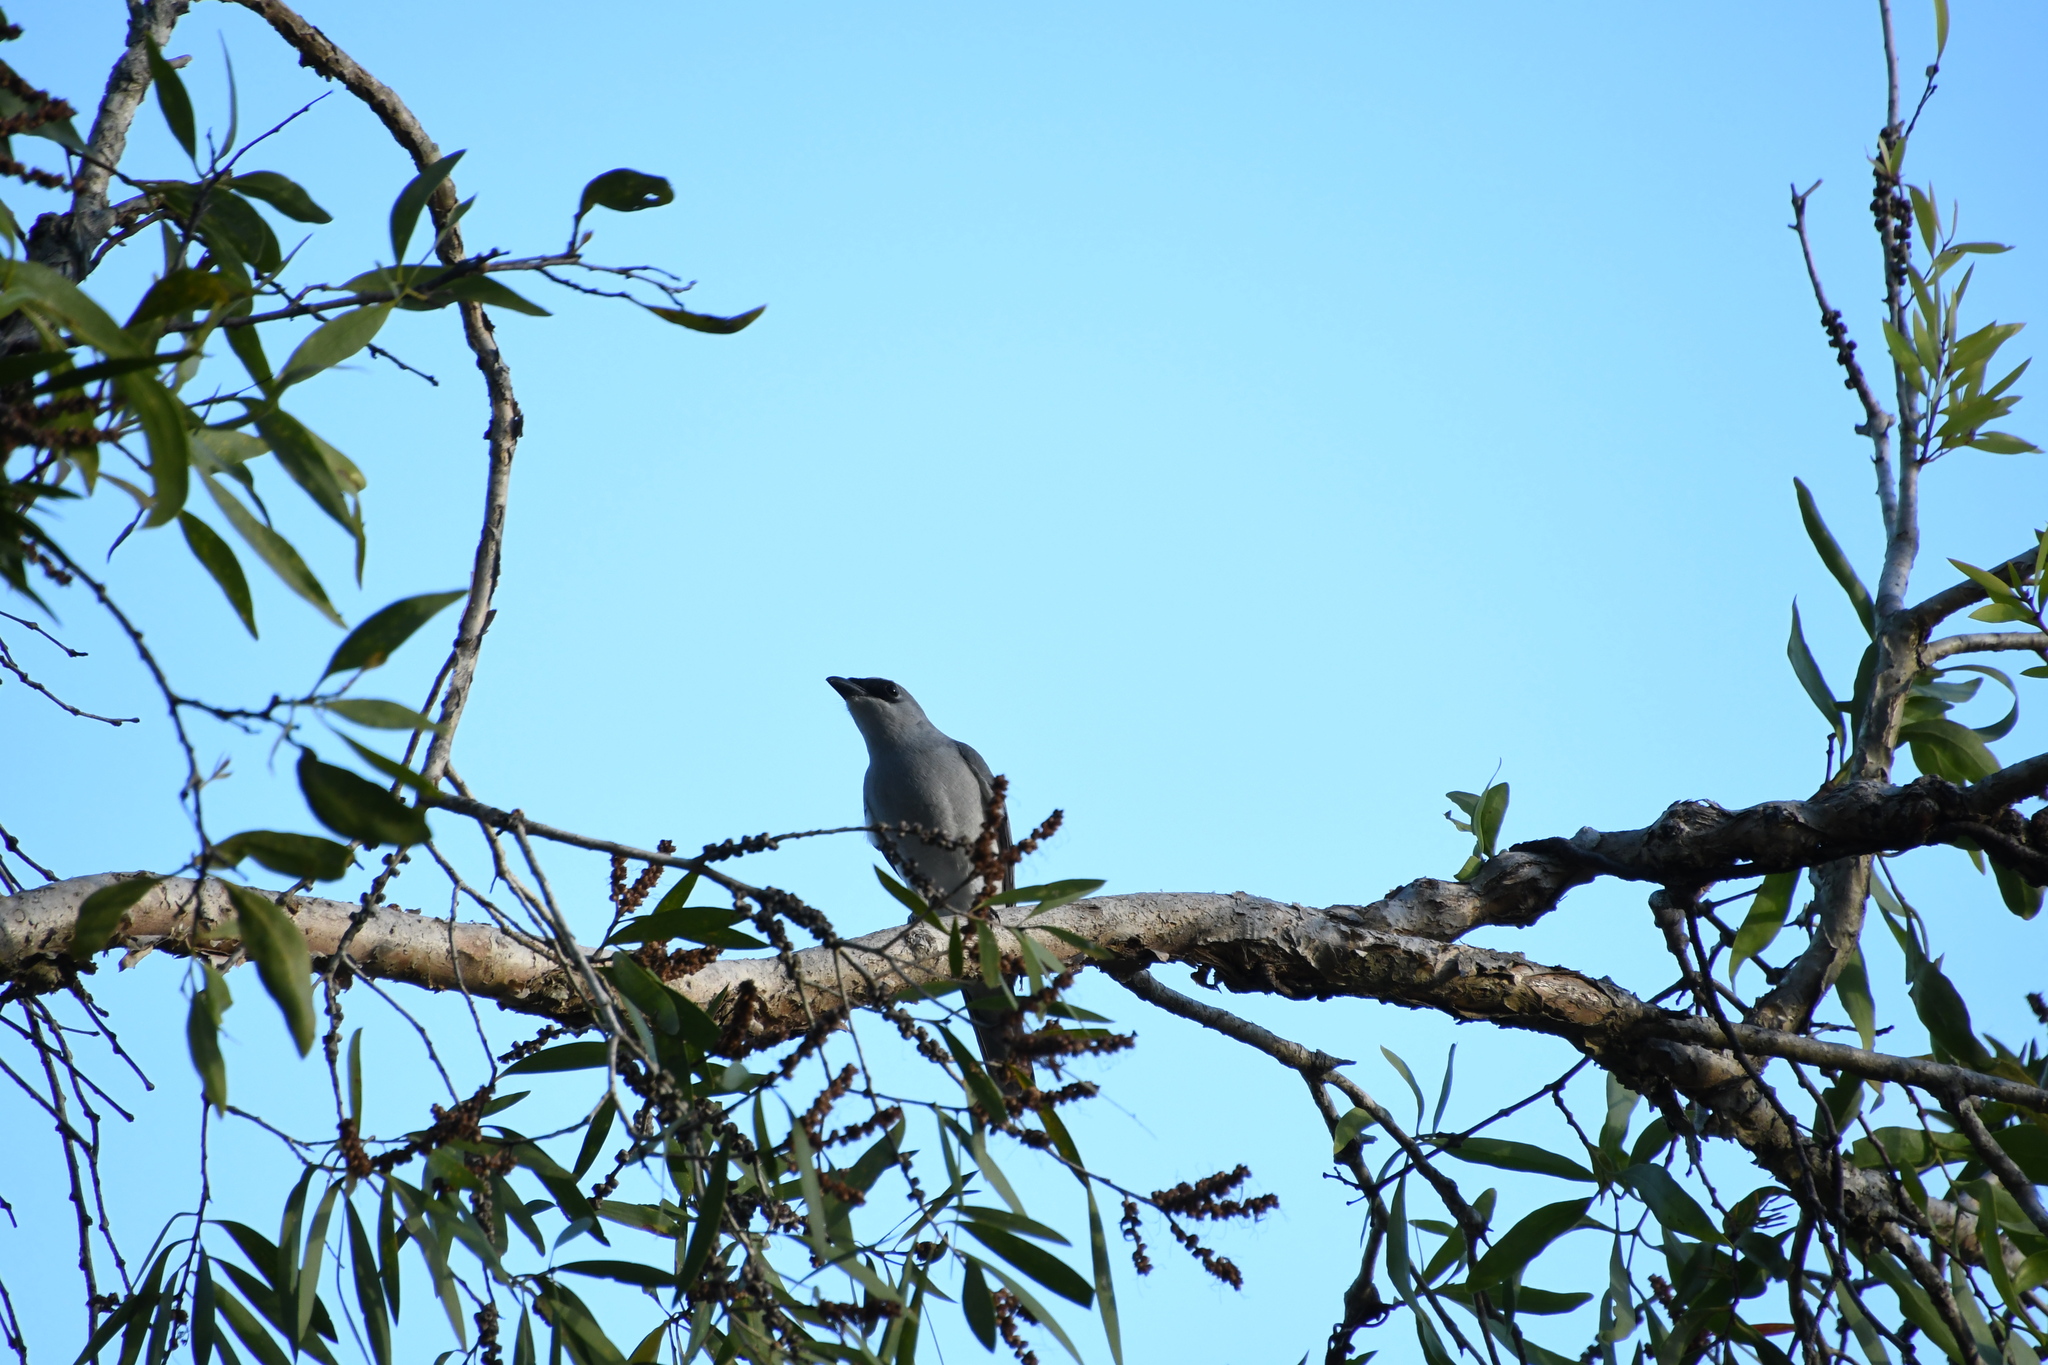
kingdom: Animalia
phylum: Chordata
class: Aves
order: Passeriformes
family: Campephagidae
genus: Coracina
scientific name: Coracina papuensis
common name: White-bellied cuckooshrike
